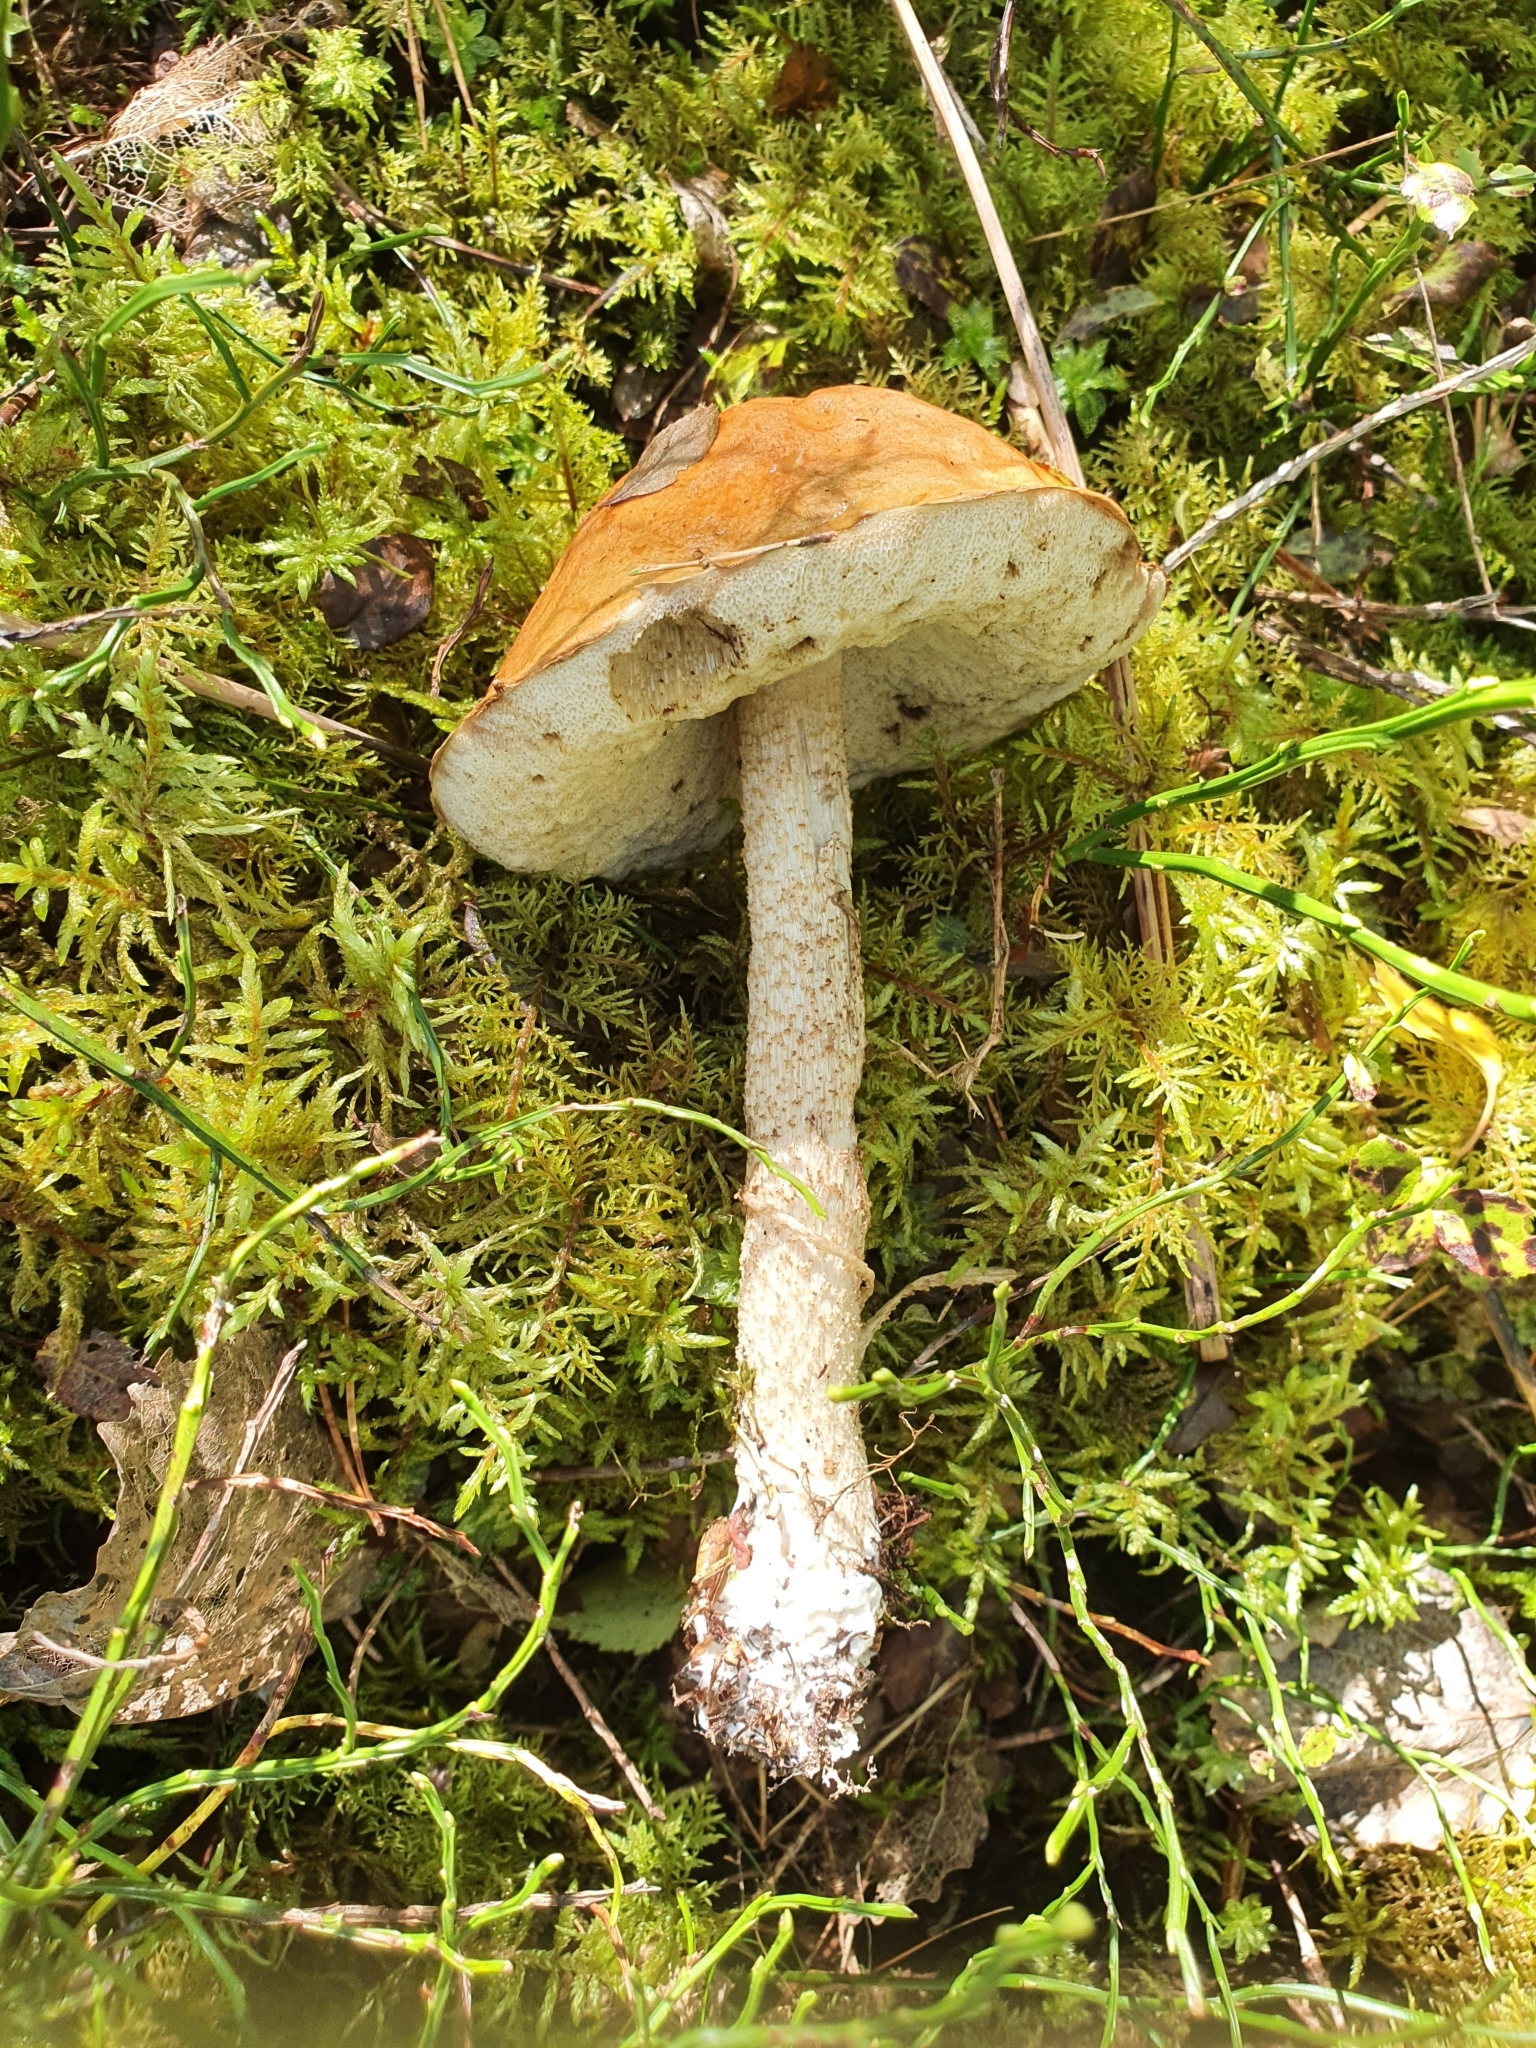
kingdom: Fungi
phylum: Basidiomycota
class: Agaricomycetes
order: Boletales
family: Boletaceae
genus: Leccinum
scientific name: Leccinum albostipitatum
